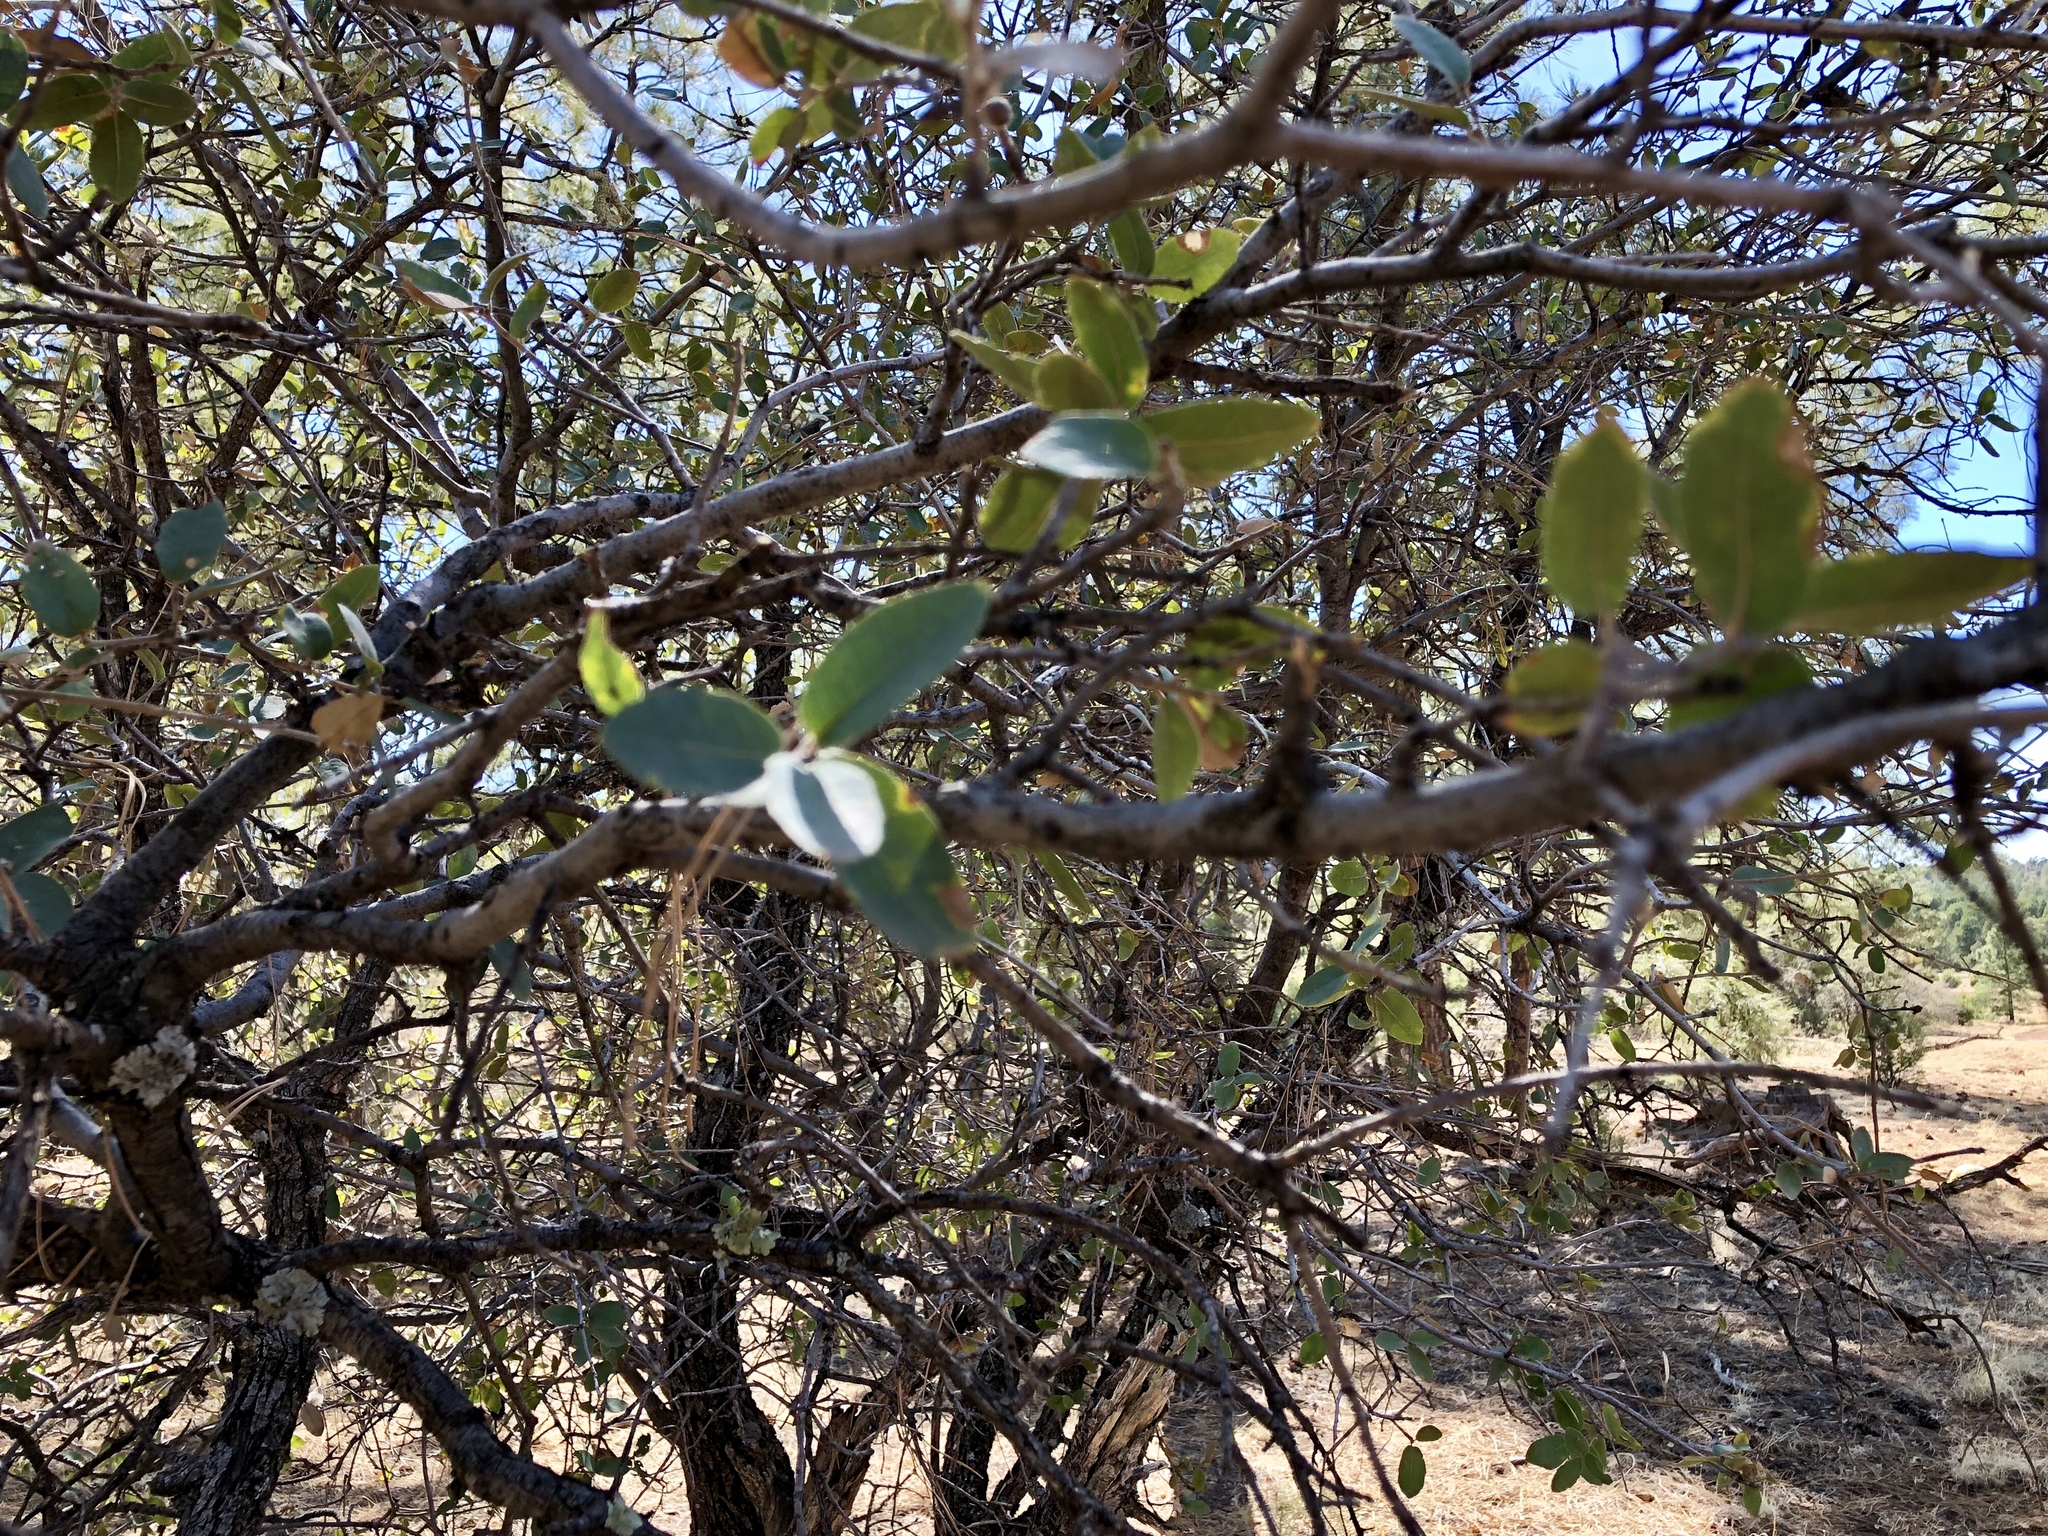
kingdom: Plantae
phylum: Tracheophyta
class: Magnoliopsida
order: Fagales
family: Fagaceae
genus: Quercus
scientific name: Quercus grisea
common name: Gray oak
